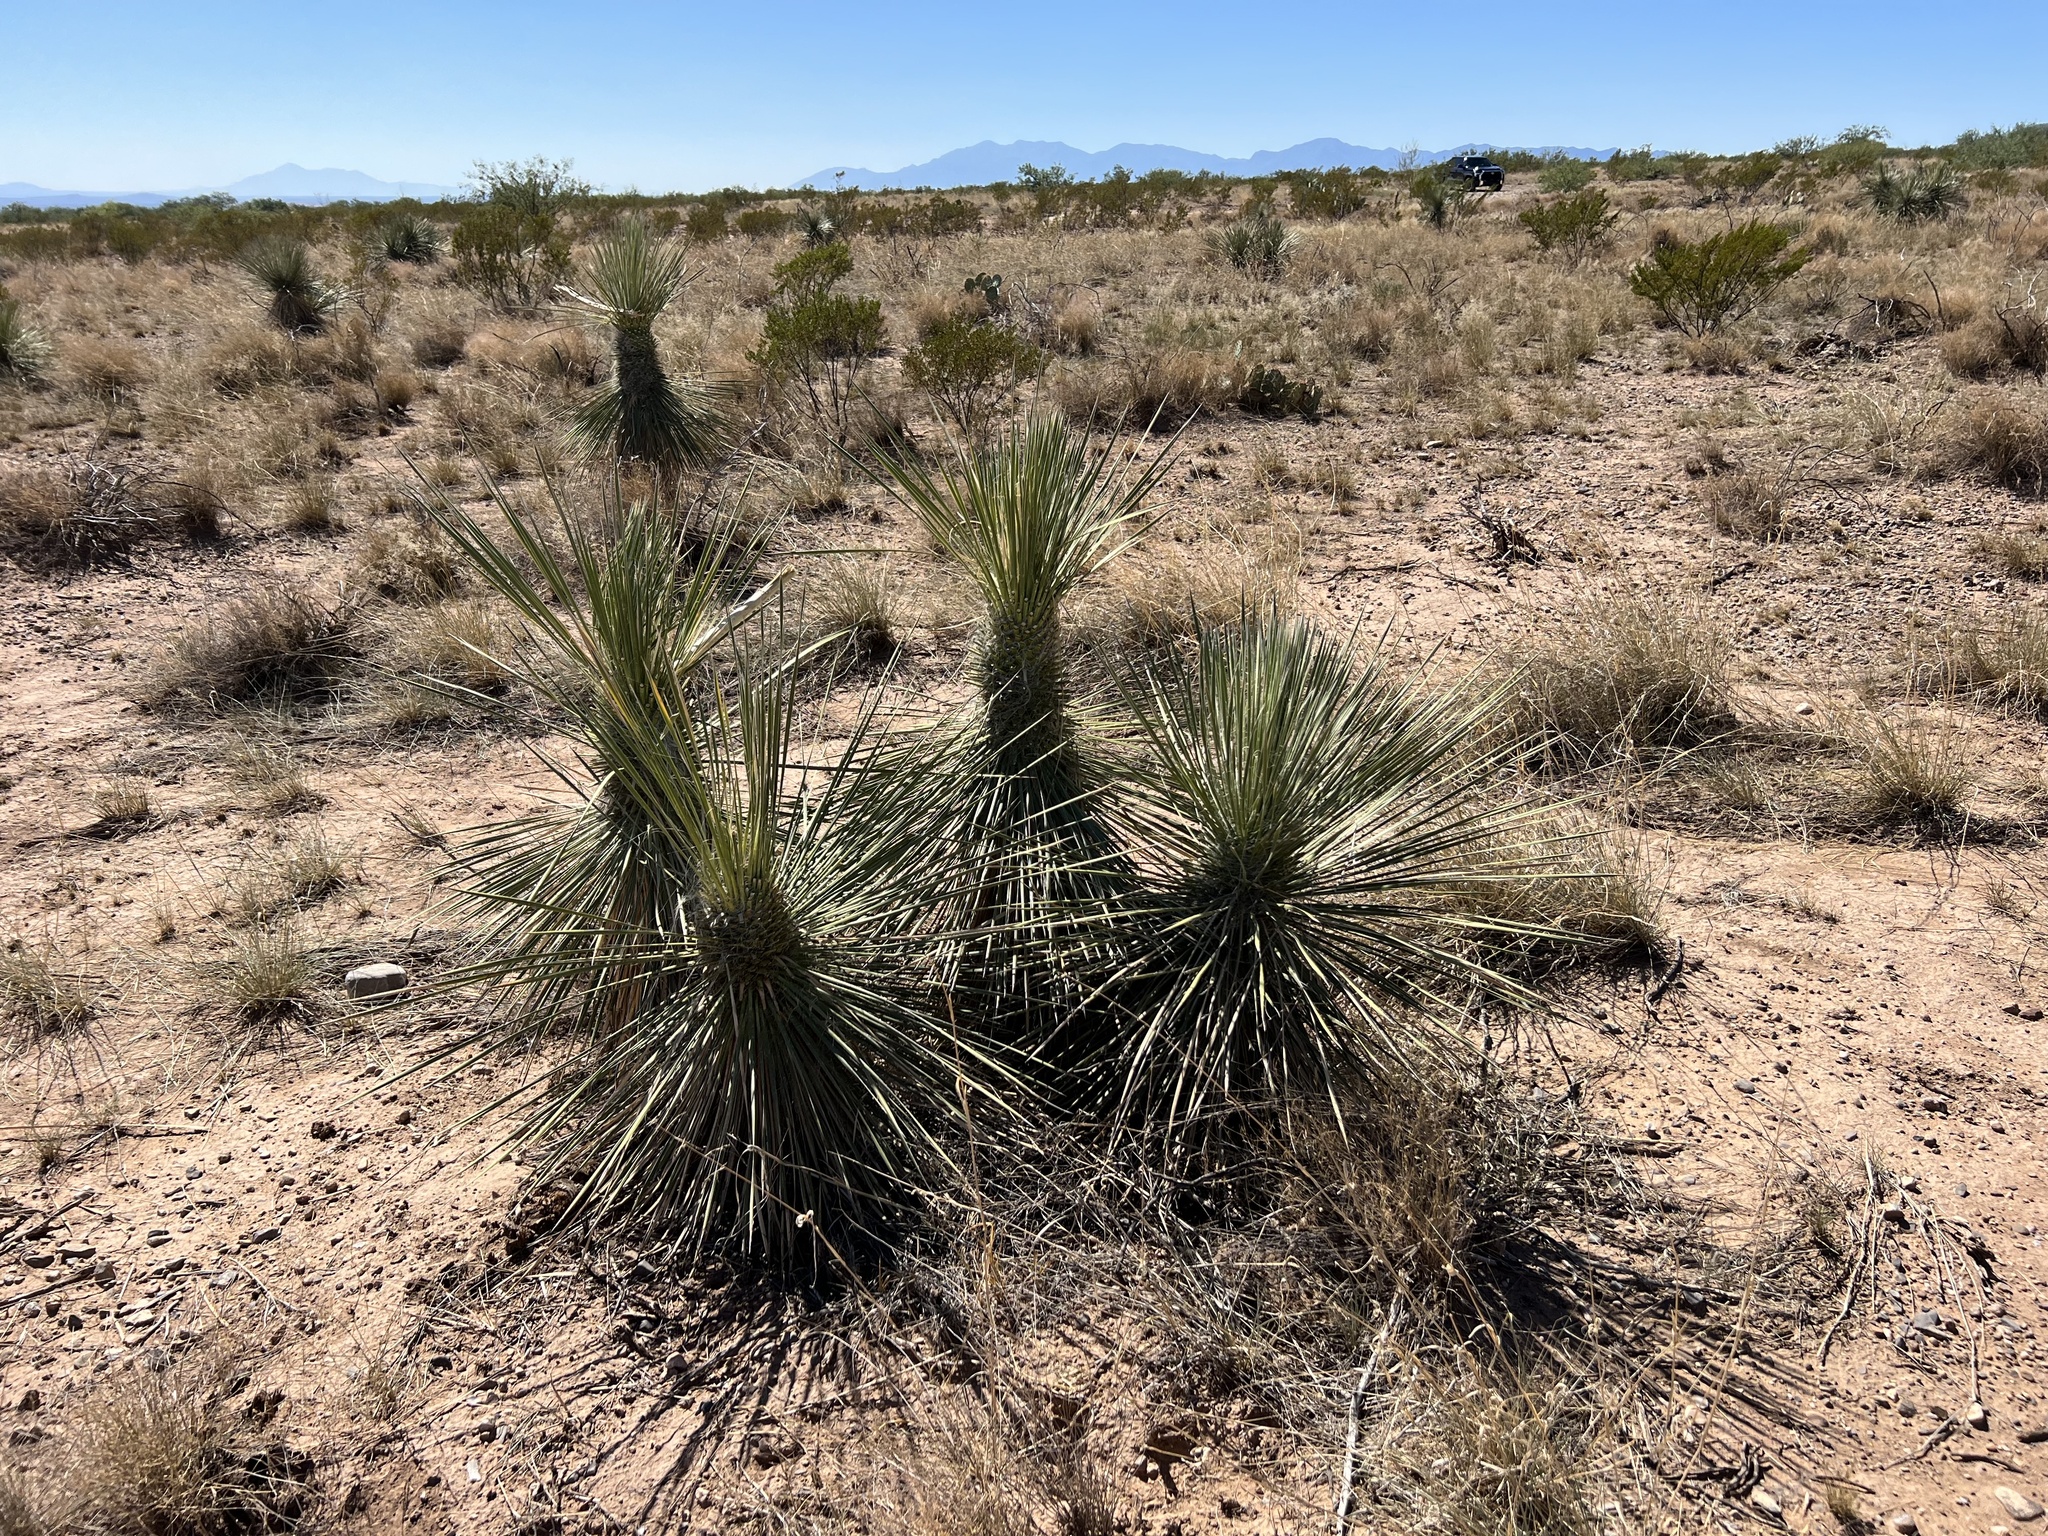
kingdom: Plantae
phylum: Tracheophyta
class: Liliopsida
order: Asparagales
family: Asparagaceae
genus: Yucca
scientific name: Yucca elata
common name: Palmella
